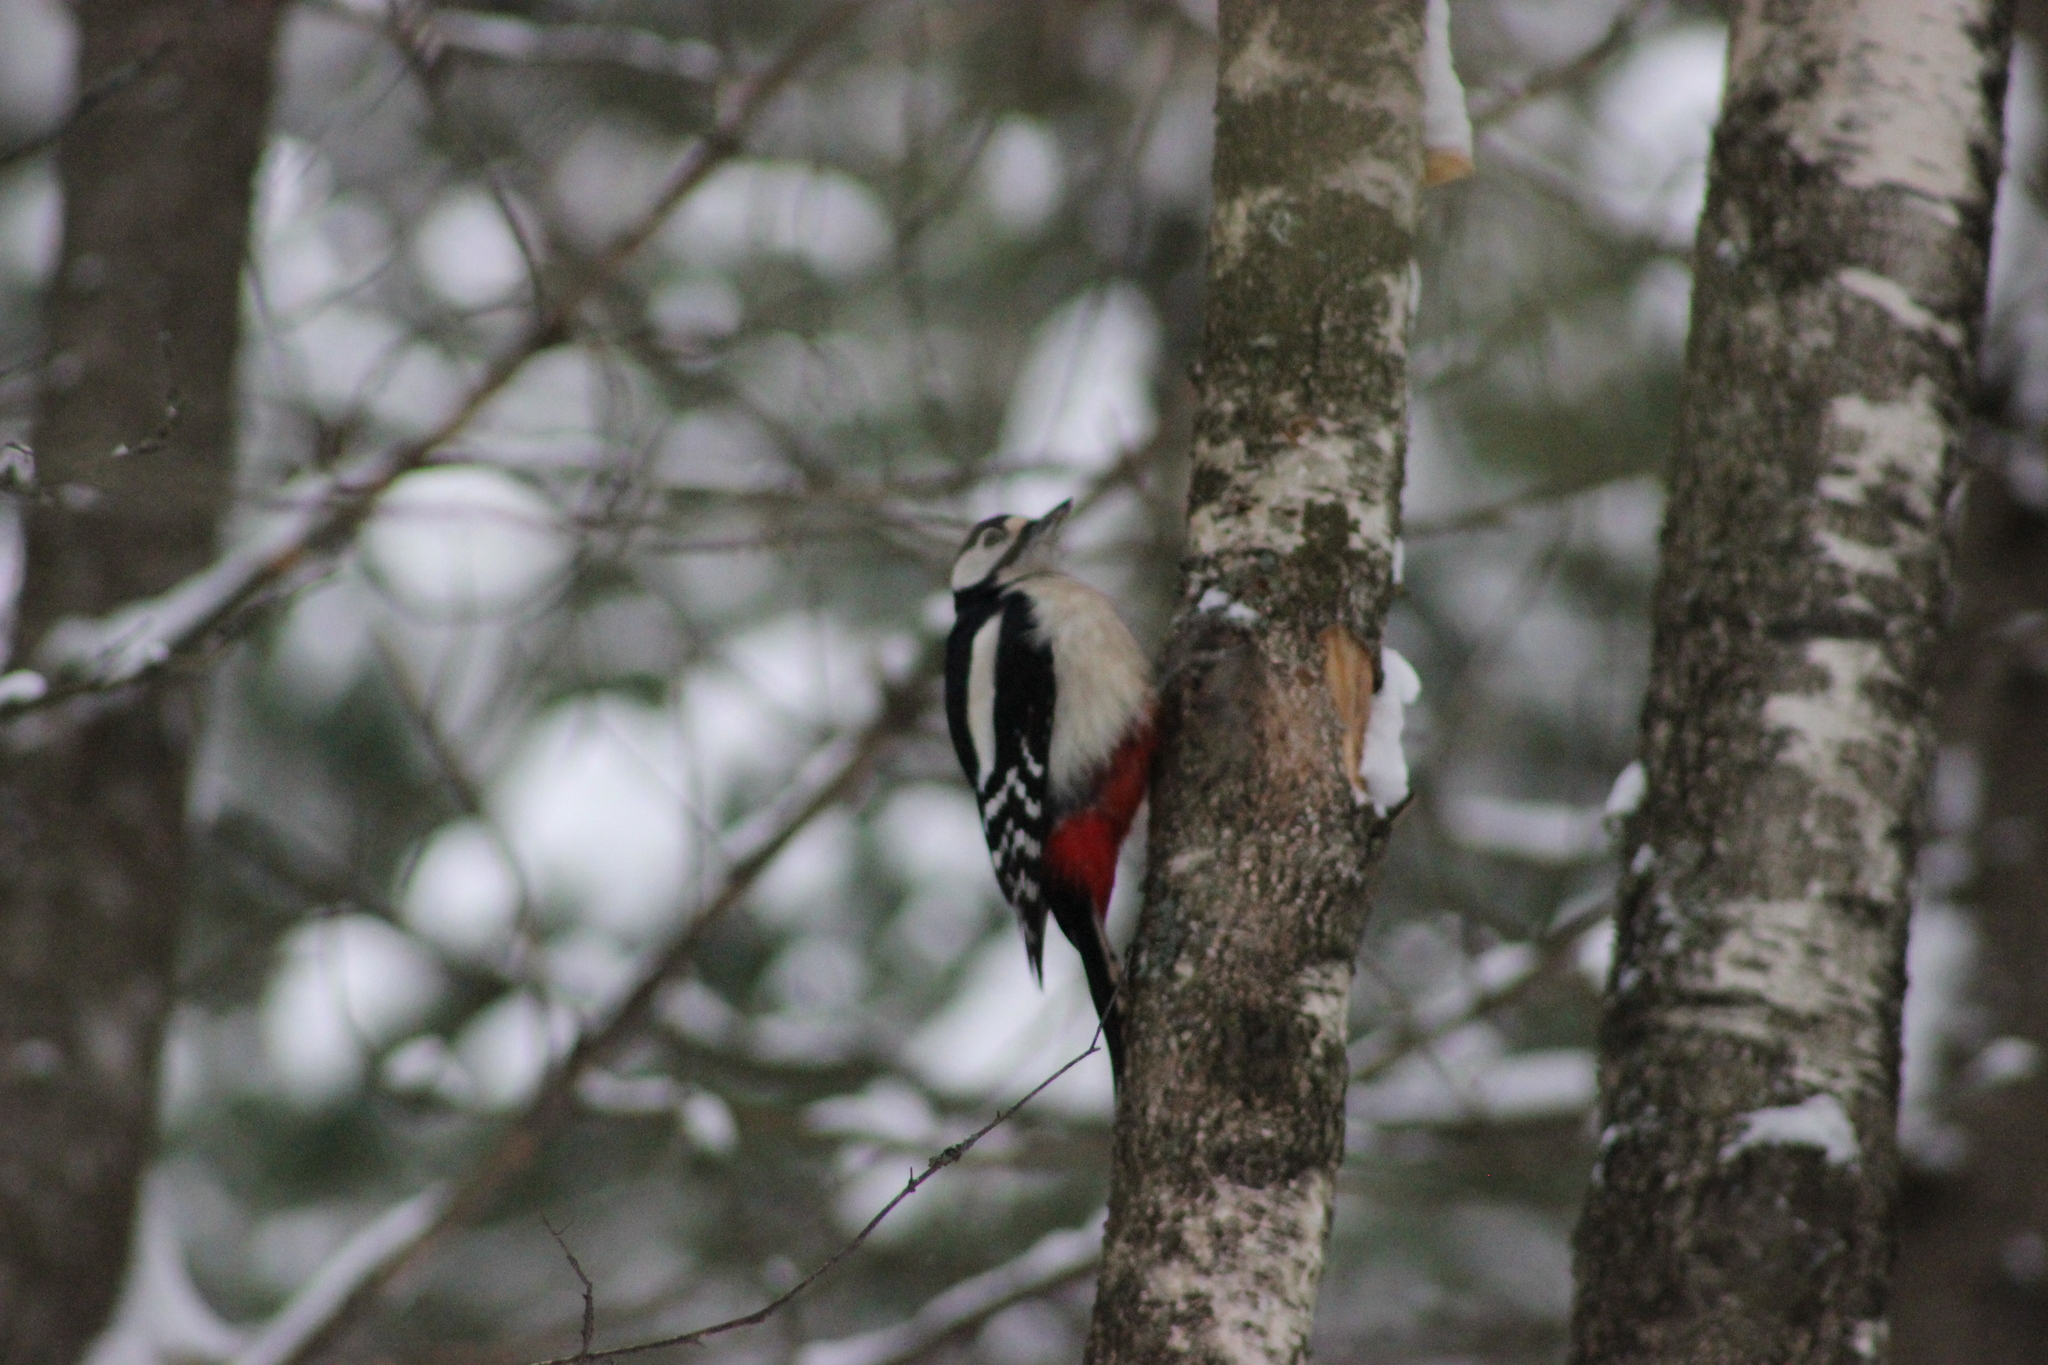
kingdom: Animalia
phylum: Chordata
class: Aves
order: Piciformes
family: Picidae
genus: Dendrocopos
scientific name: Dendrocopos major
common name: Great spotted woodpecker
